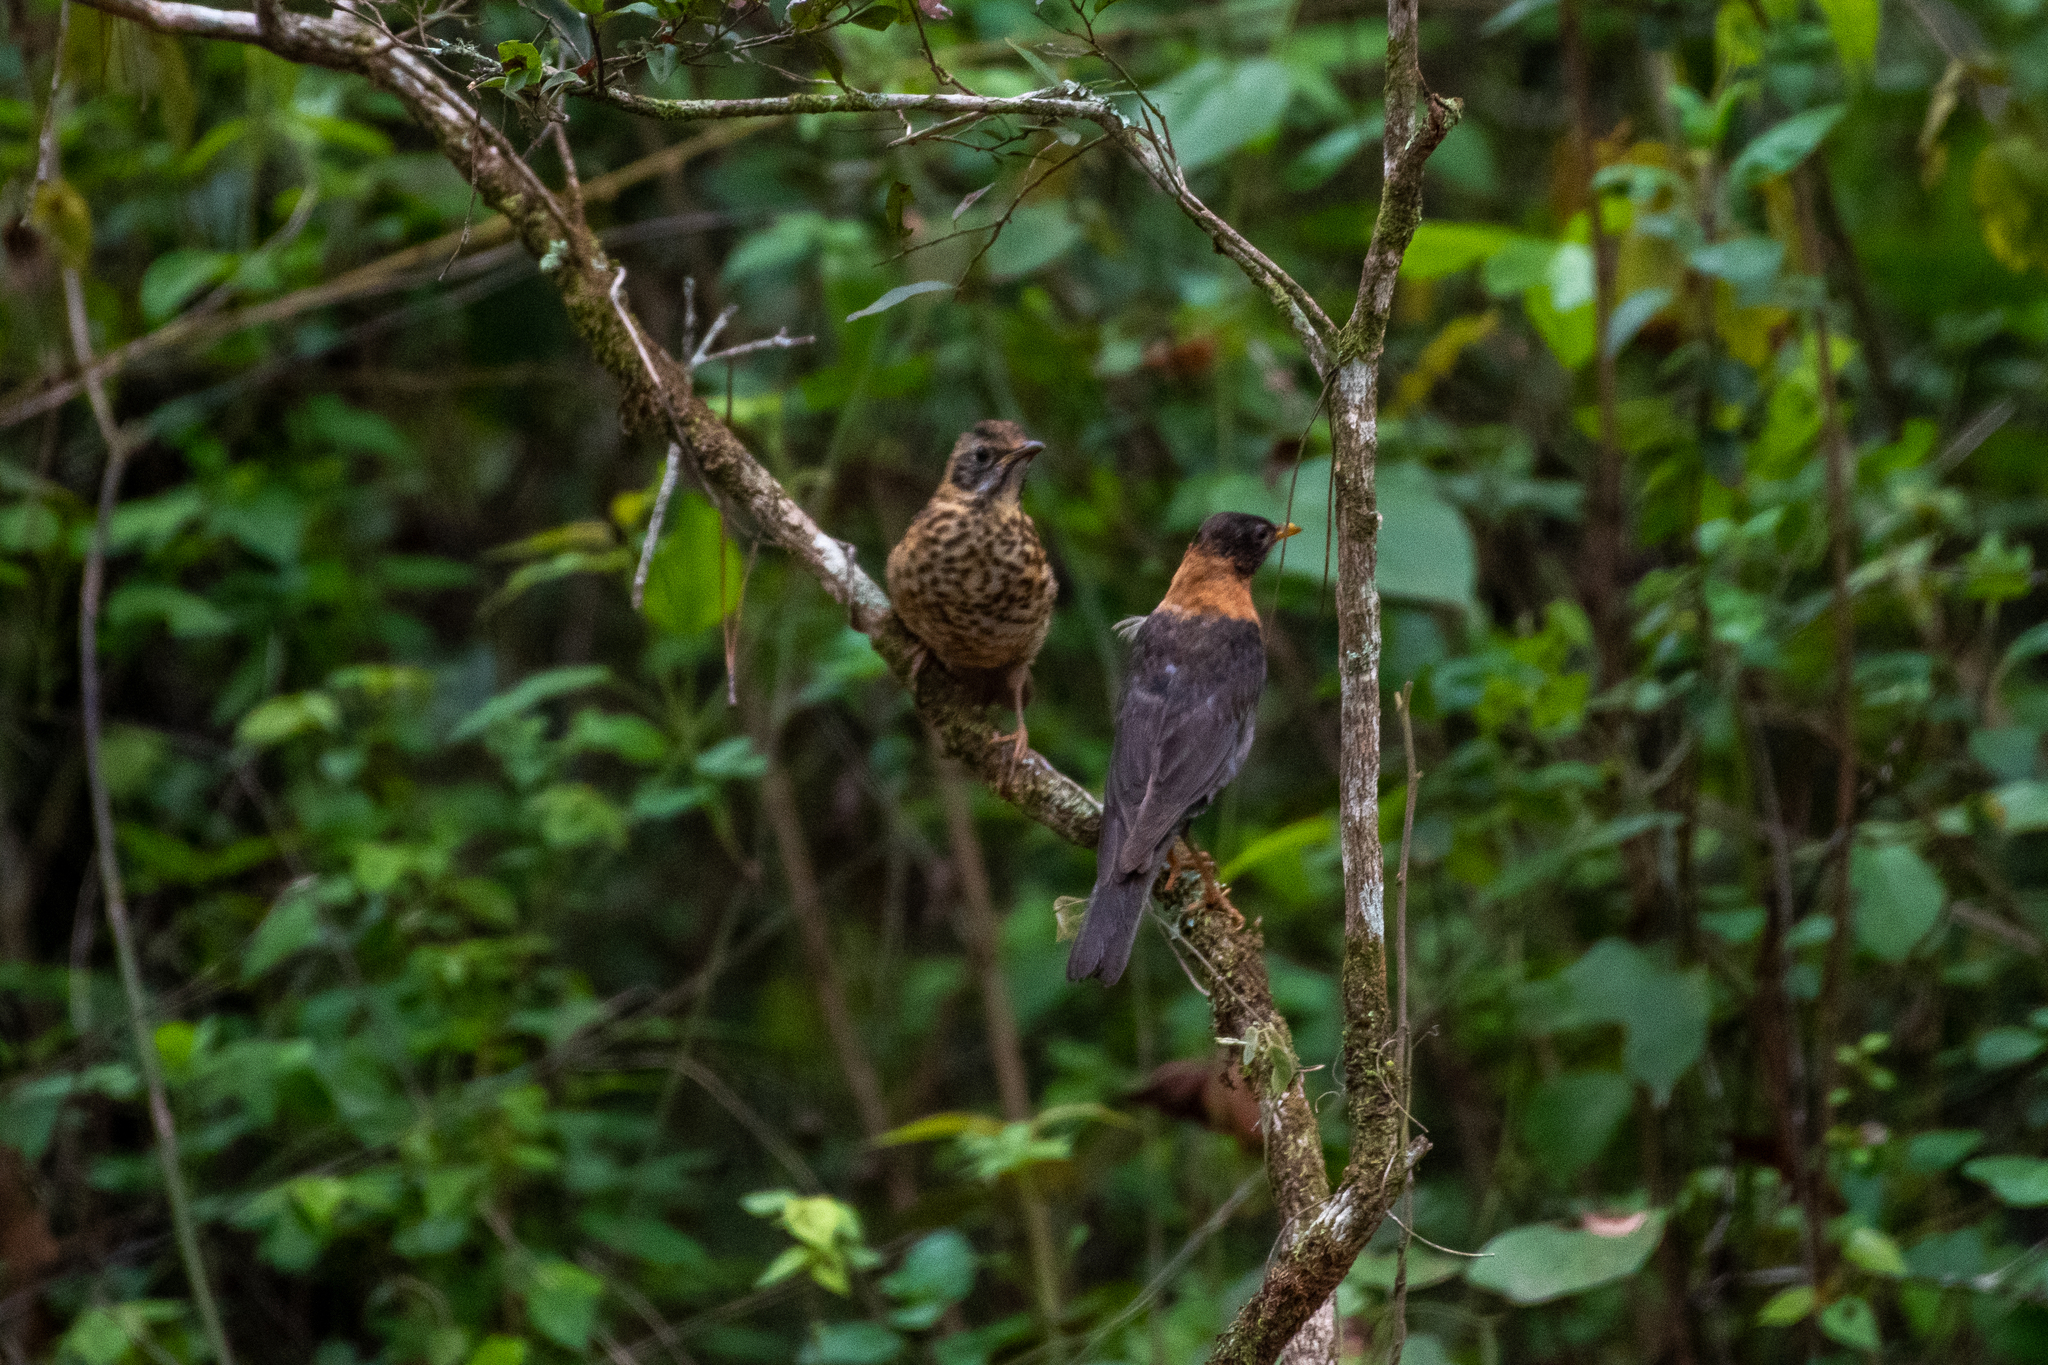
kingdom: Animalia
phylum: Chordata
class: Aves
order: Passeriformes
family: Turdidae
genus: Turdus
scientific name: Turdus rufitorques
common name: Rufous-collared thrush
